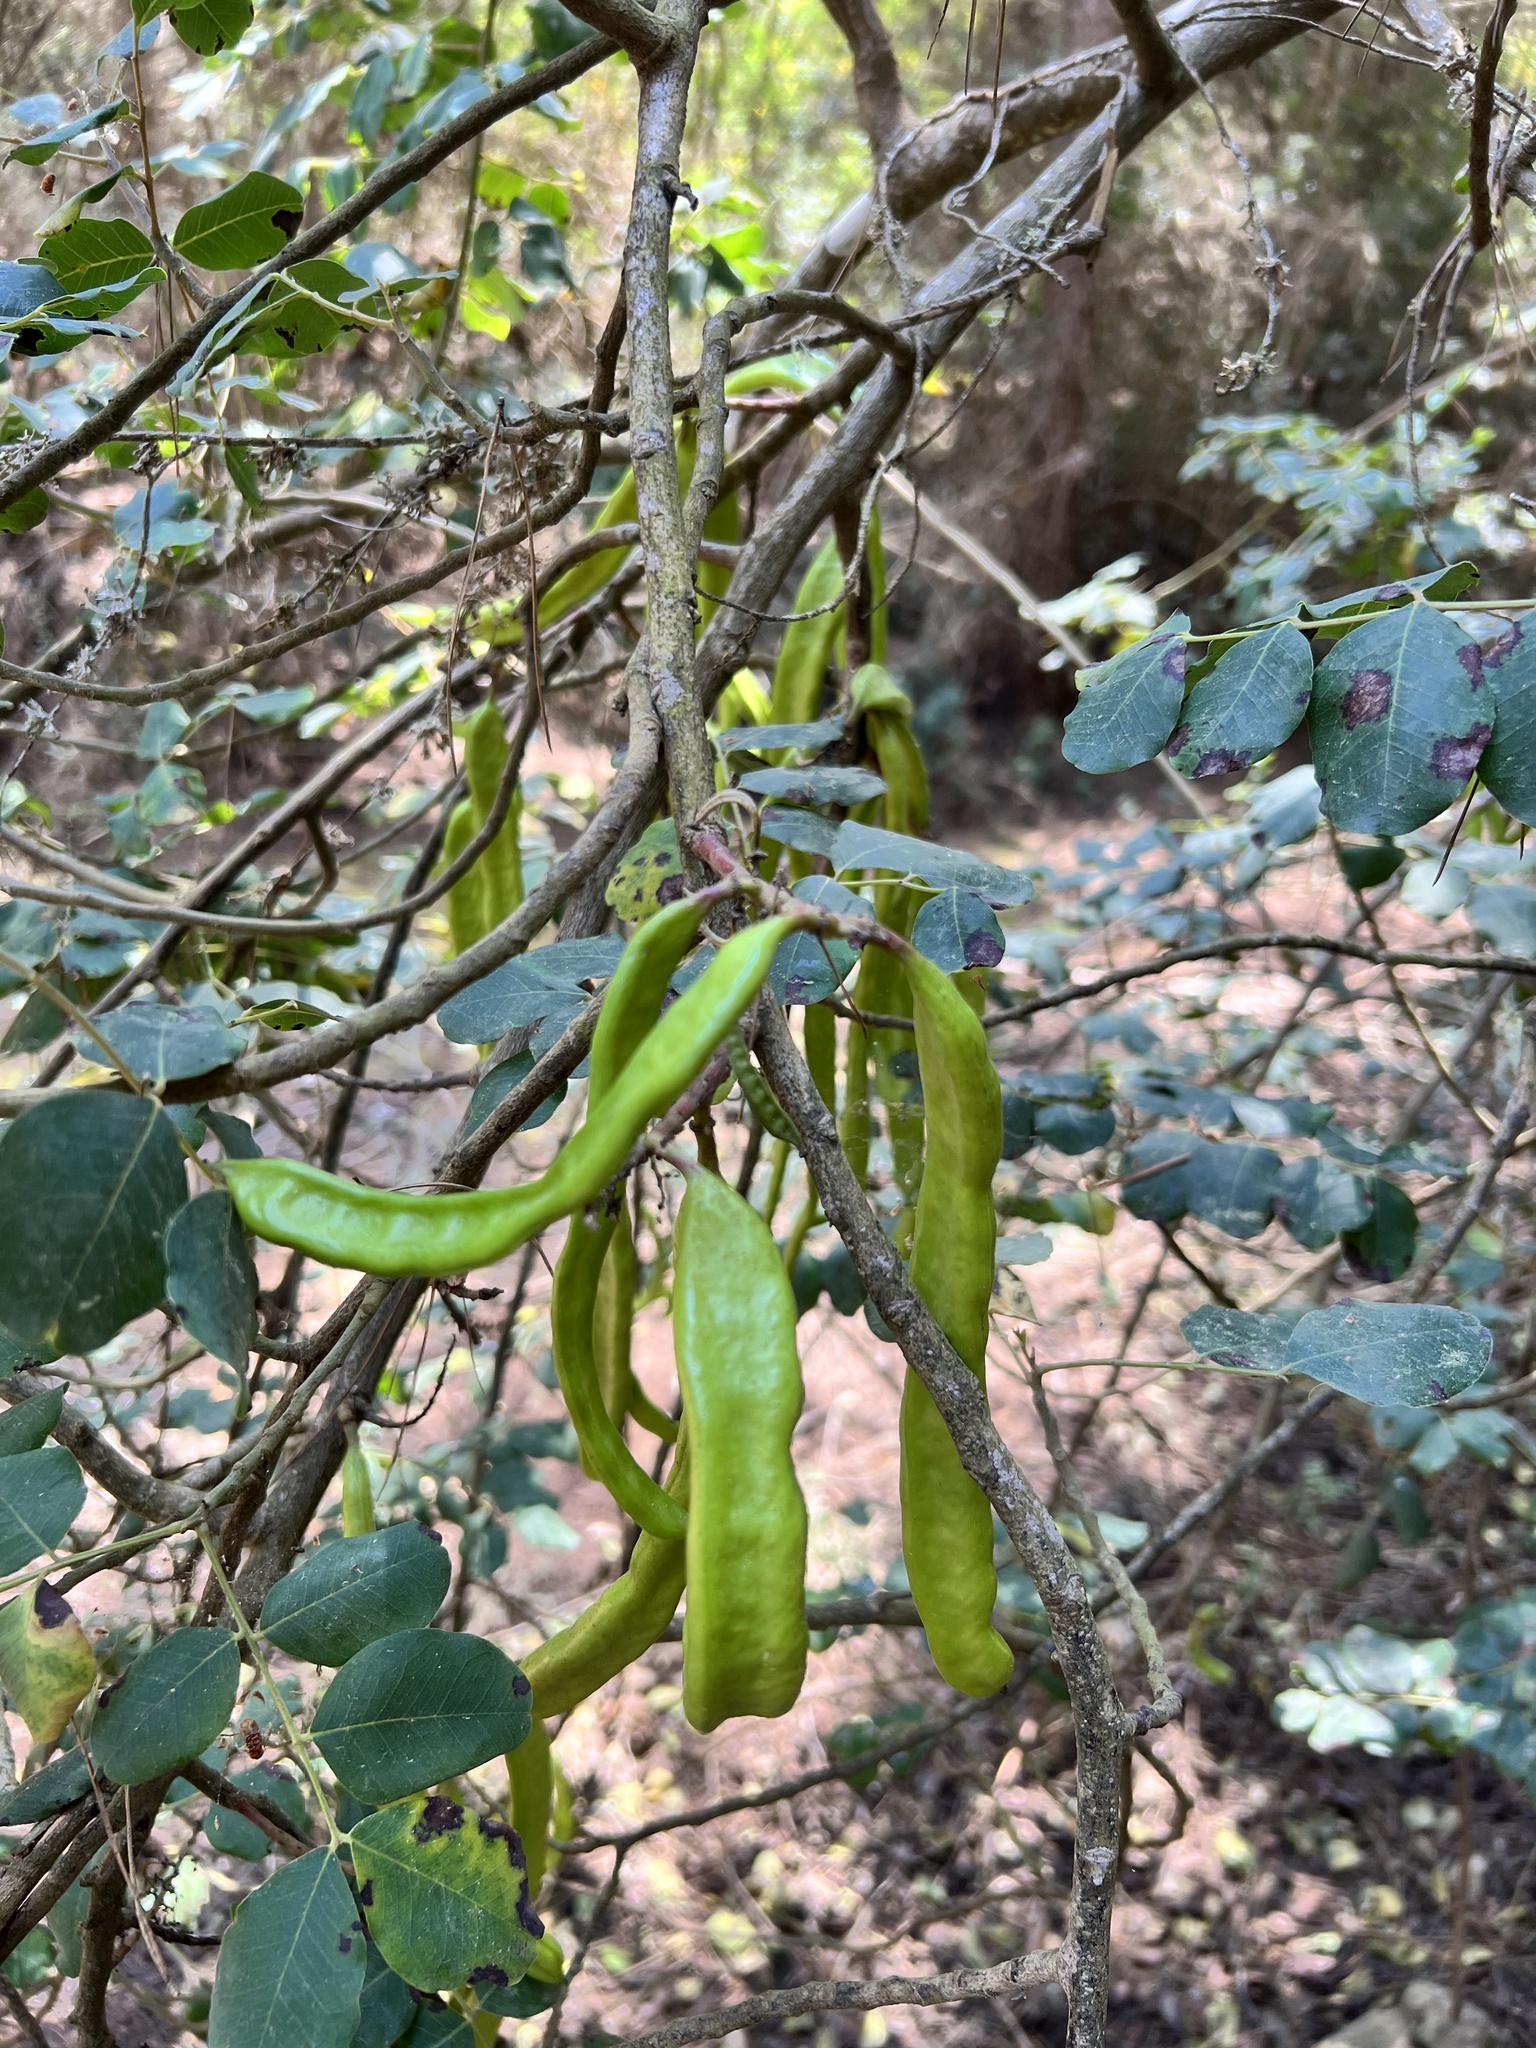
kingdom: Plantae
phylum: Tracheophyta
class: Magnoliopsida
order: Fabales
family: Fabaceae
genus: Ceratonia
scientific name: Ceratonia siliqua
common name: Carob
